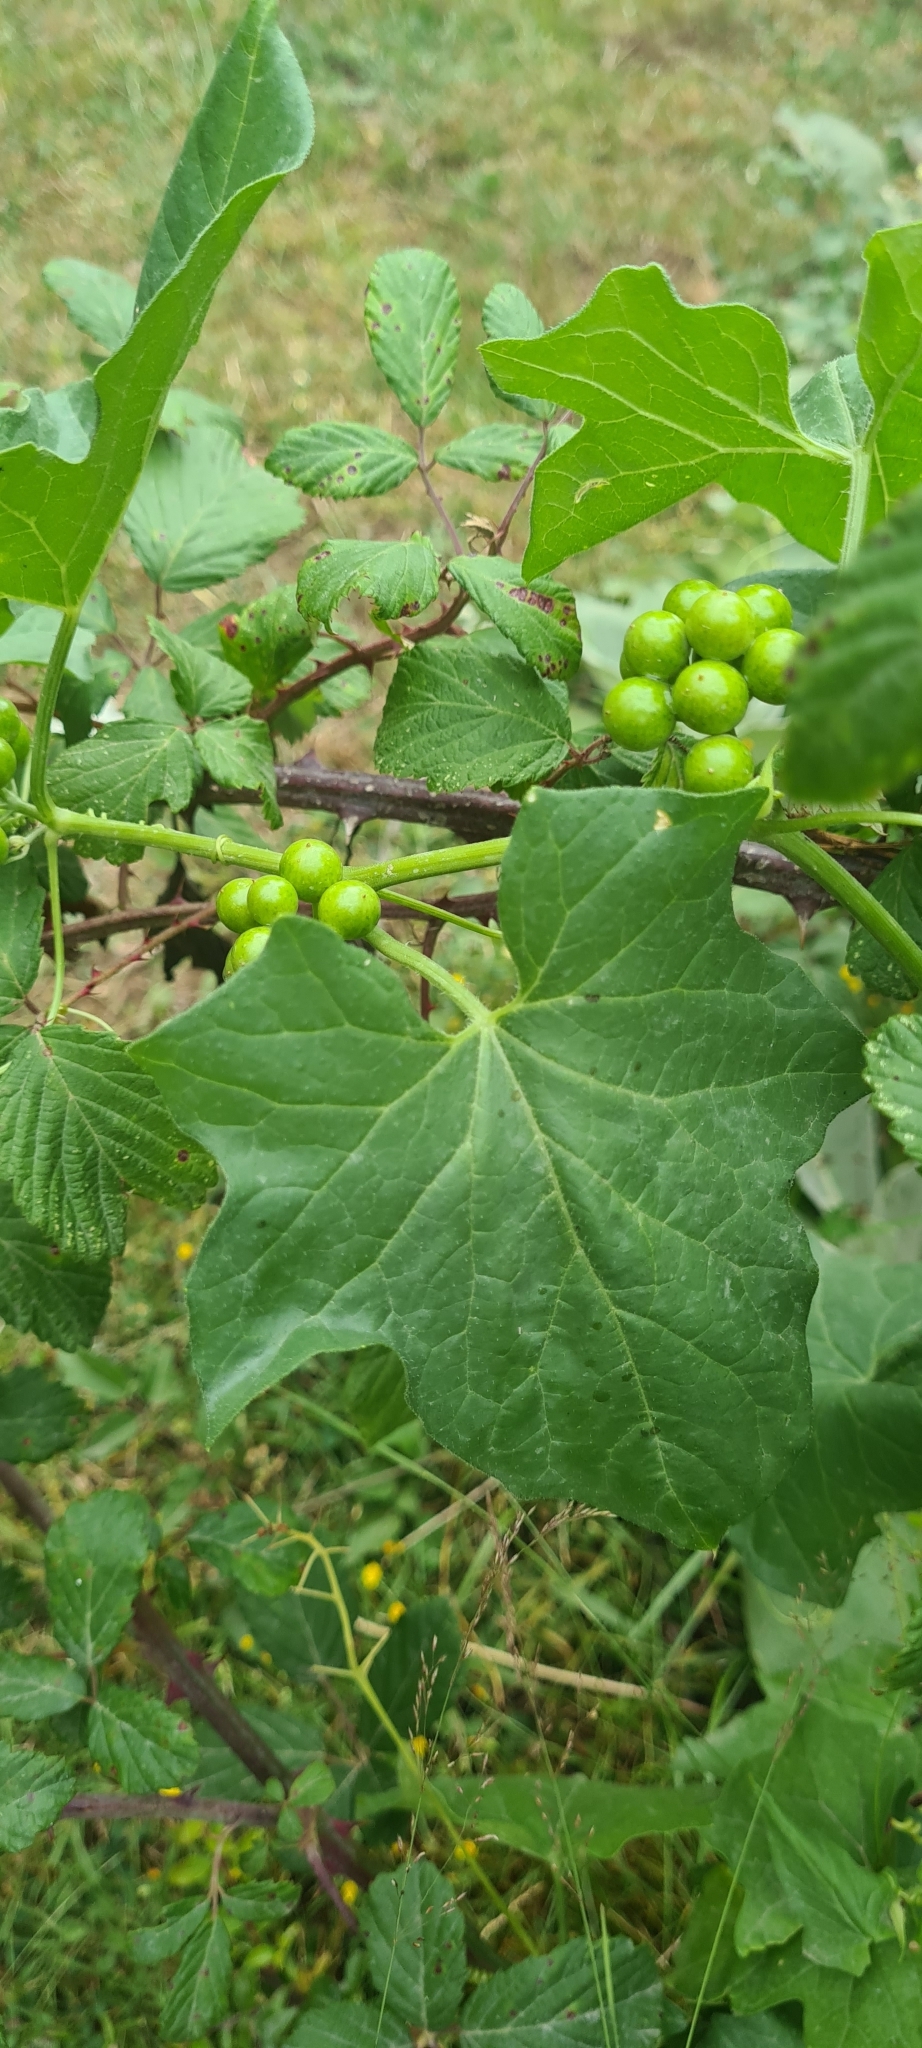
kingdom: Plantae
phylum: Tracheophyta
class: Magnoliopsida
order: Cucurbitales
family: Cucurbitaceae
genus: Bryonia
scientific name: Bryonia alba
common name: White bryony
